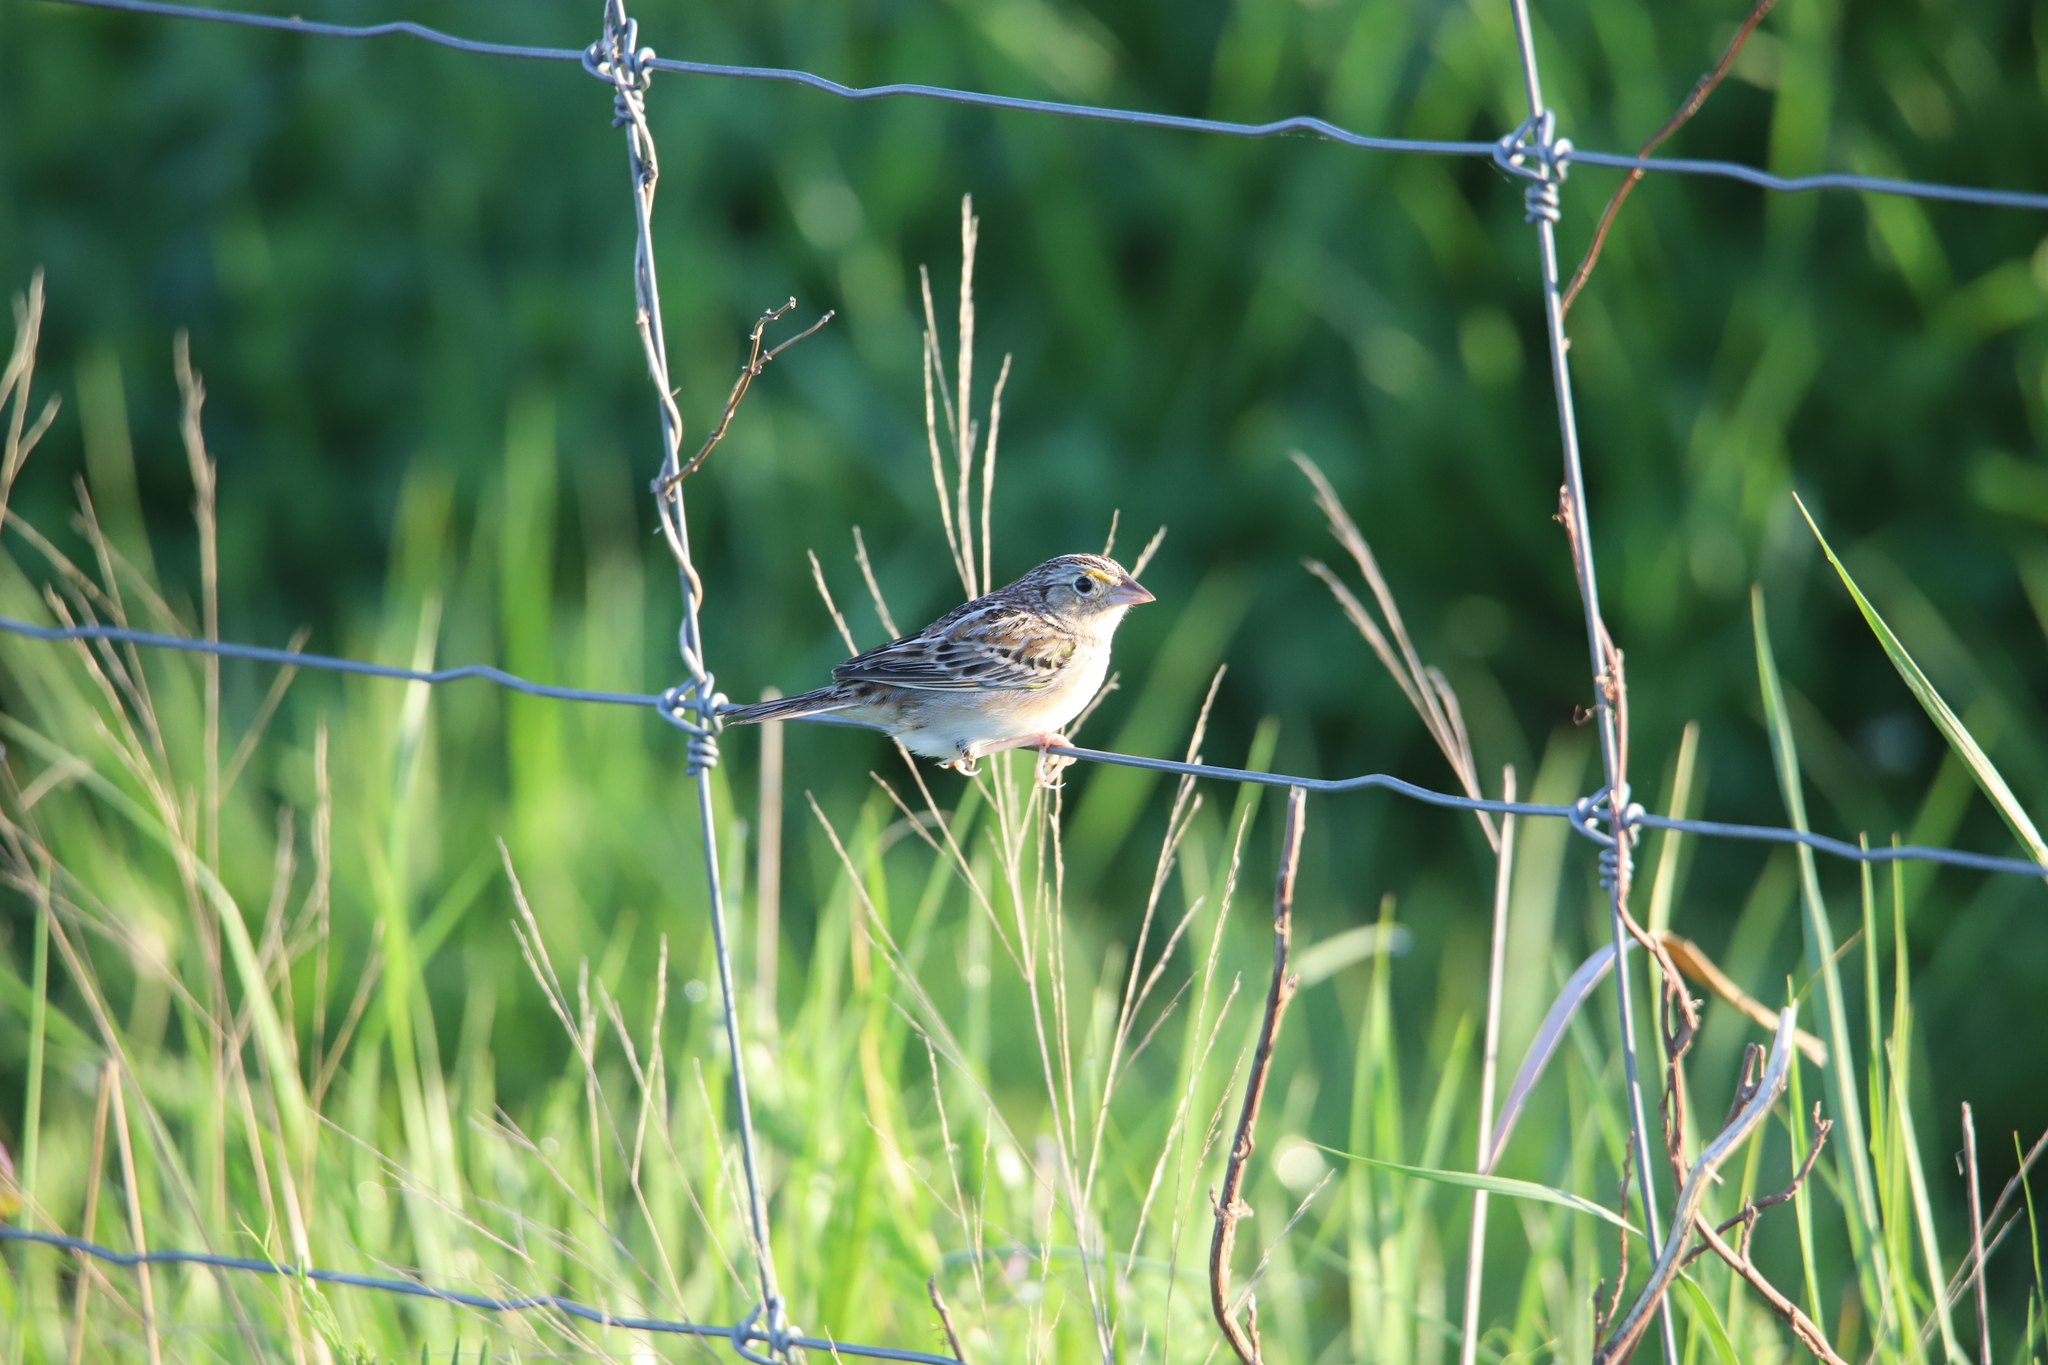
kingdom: Animalia
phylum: Chordata
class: Aves
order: Passeriformes
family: Passerellidae
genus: Ammodramus
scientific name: Ammodramus savannarum
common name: Grasshopper sparrow
